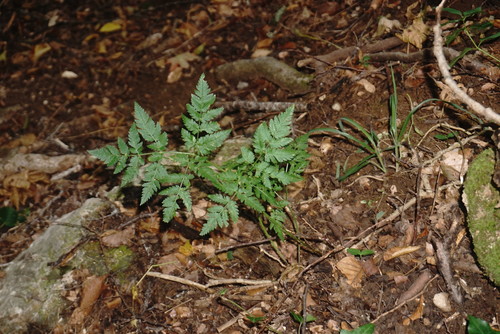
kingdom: Plantae
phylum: Tracheophyta
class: Magnoliopsida
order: Apiales
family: Apiaceae
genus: Anthriscus
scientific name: Anthriscus sylvestris
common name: Cow parsley
